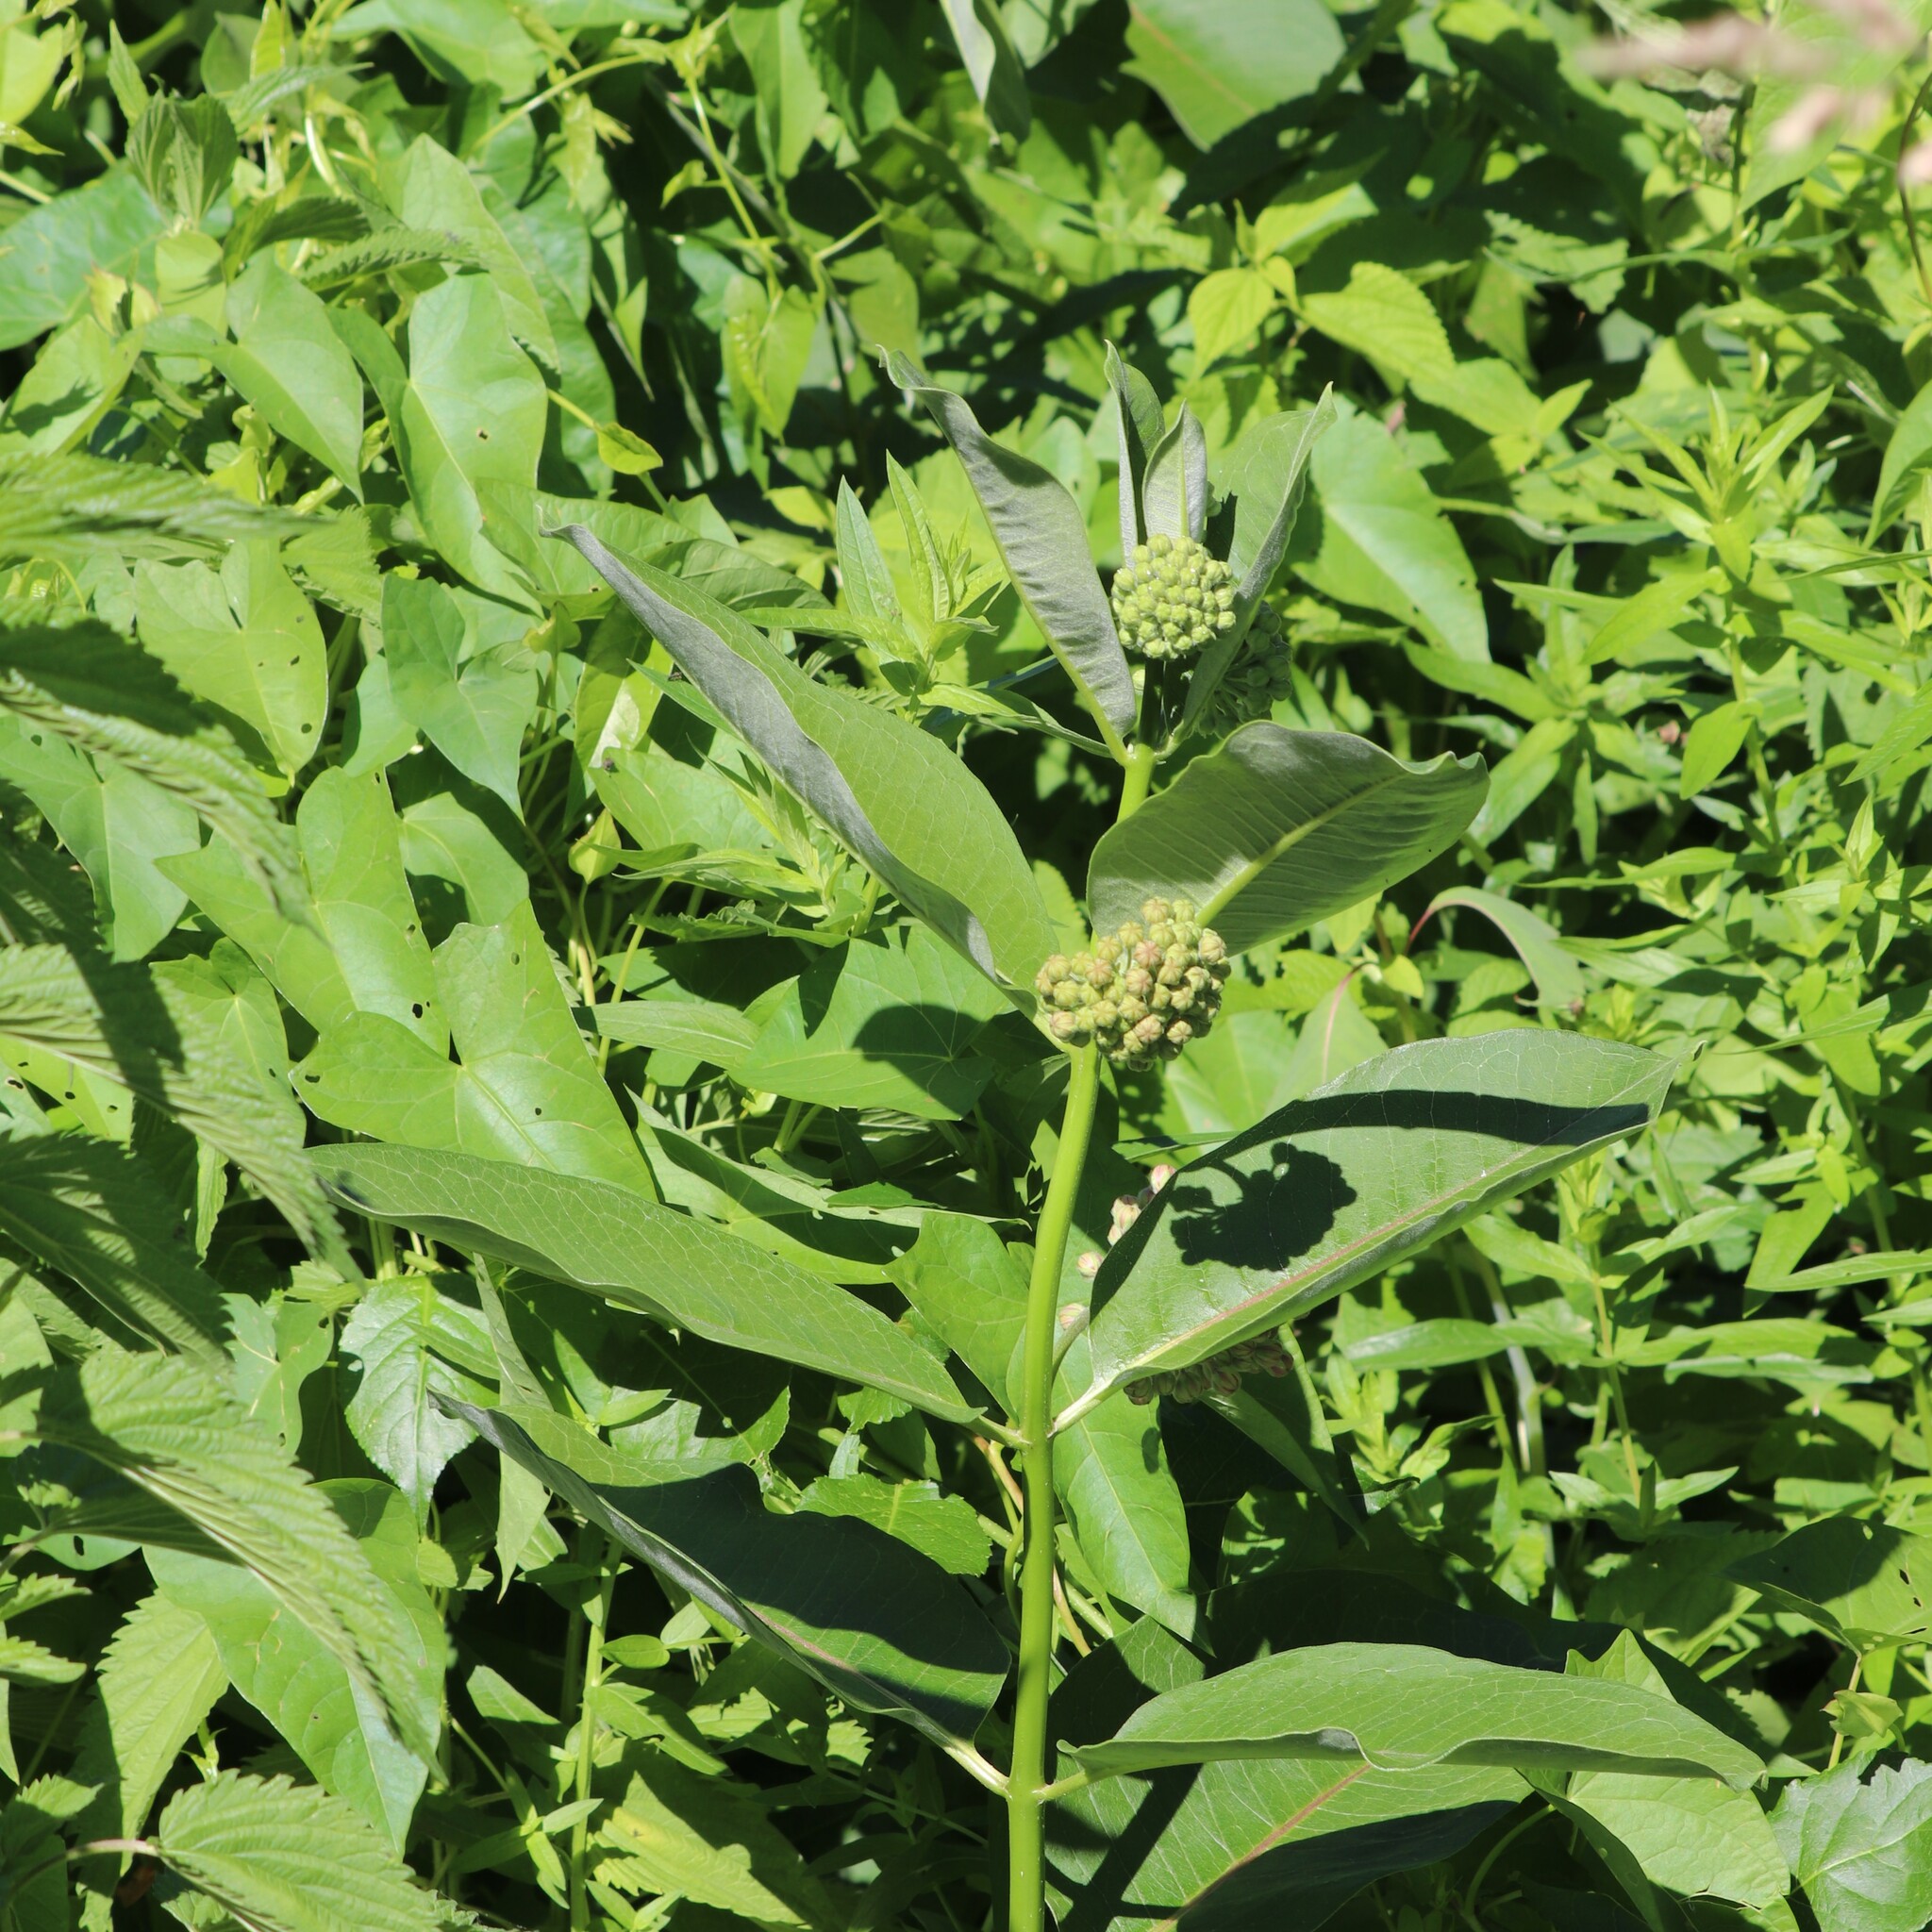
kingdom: Plantae
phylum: Tracheophyta
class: Magnoliopsida
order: Gentianales
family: Apocynaceae
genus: Asclepias
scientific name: Asclepias syriaca
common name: Common milkweed
